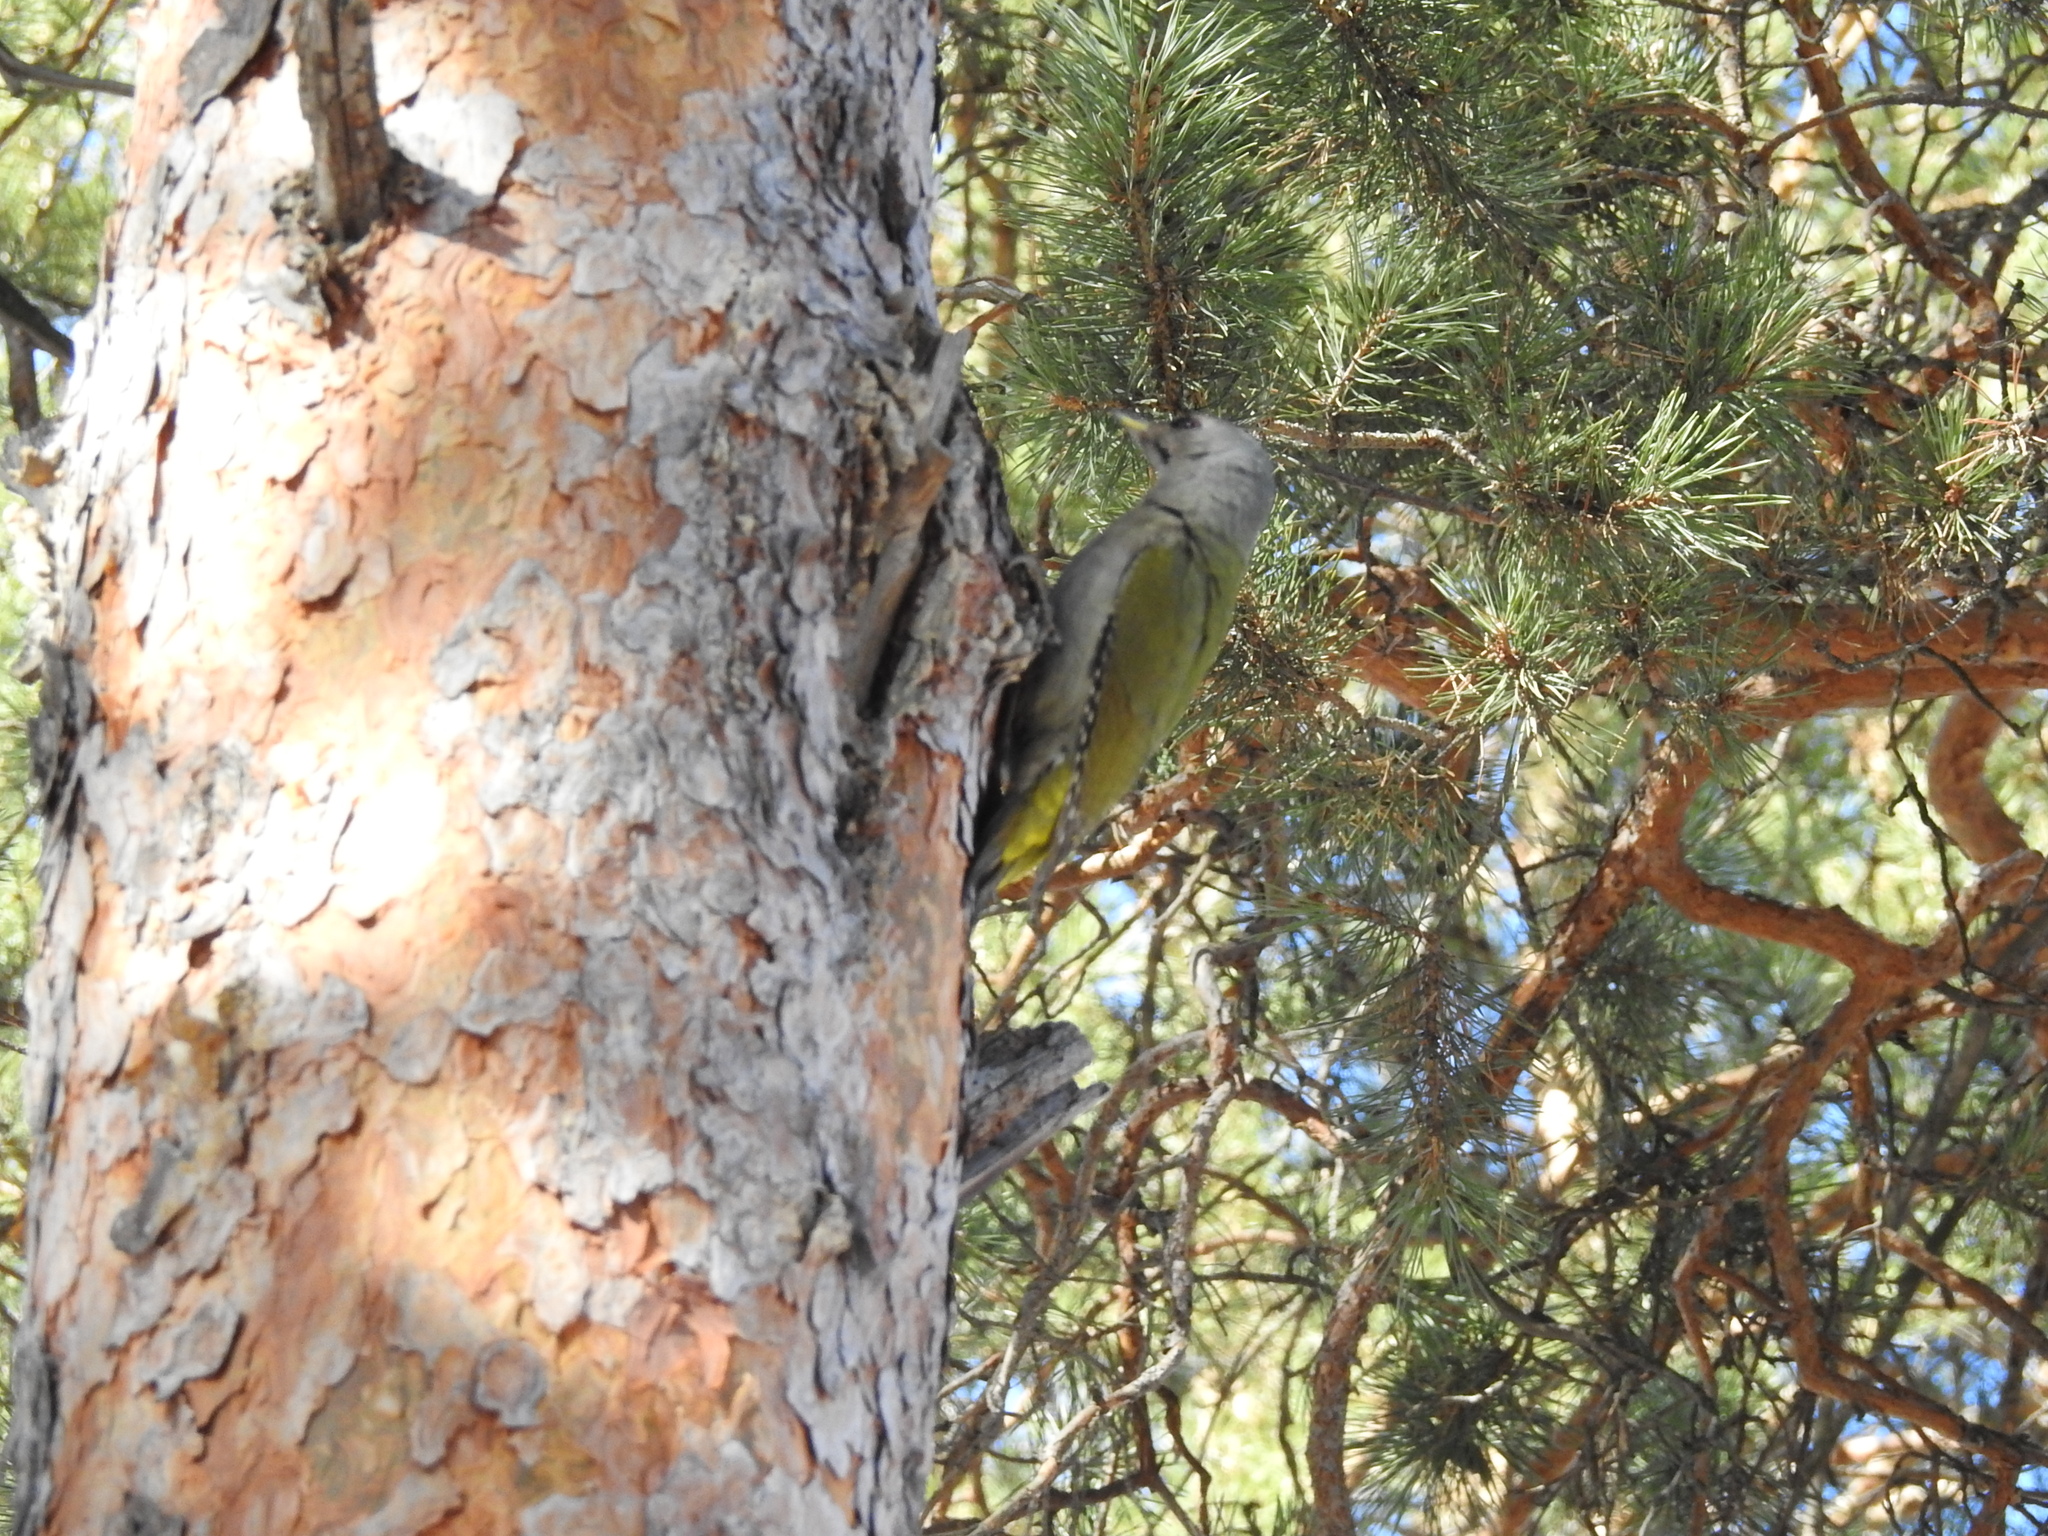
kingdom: Animalia
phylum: Chordata
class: Aves
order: Piciformes
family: Picidae
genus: Picus
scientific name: Picus canus
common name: Grey-headed woodpecker
